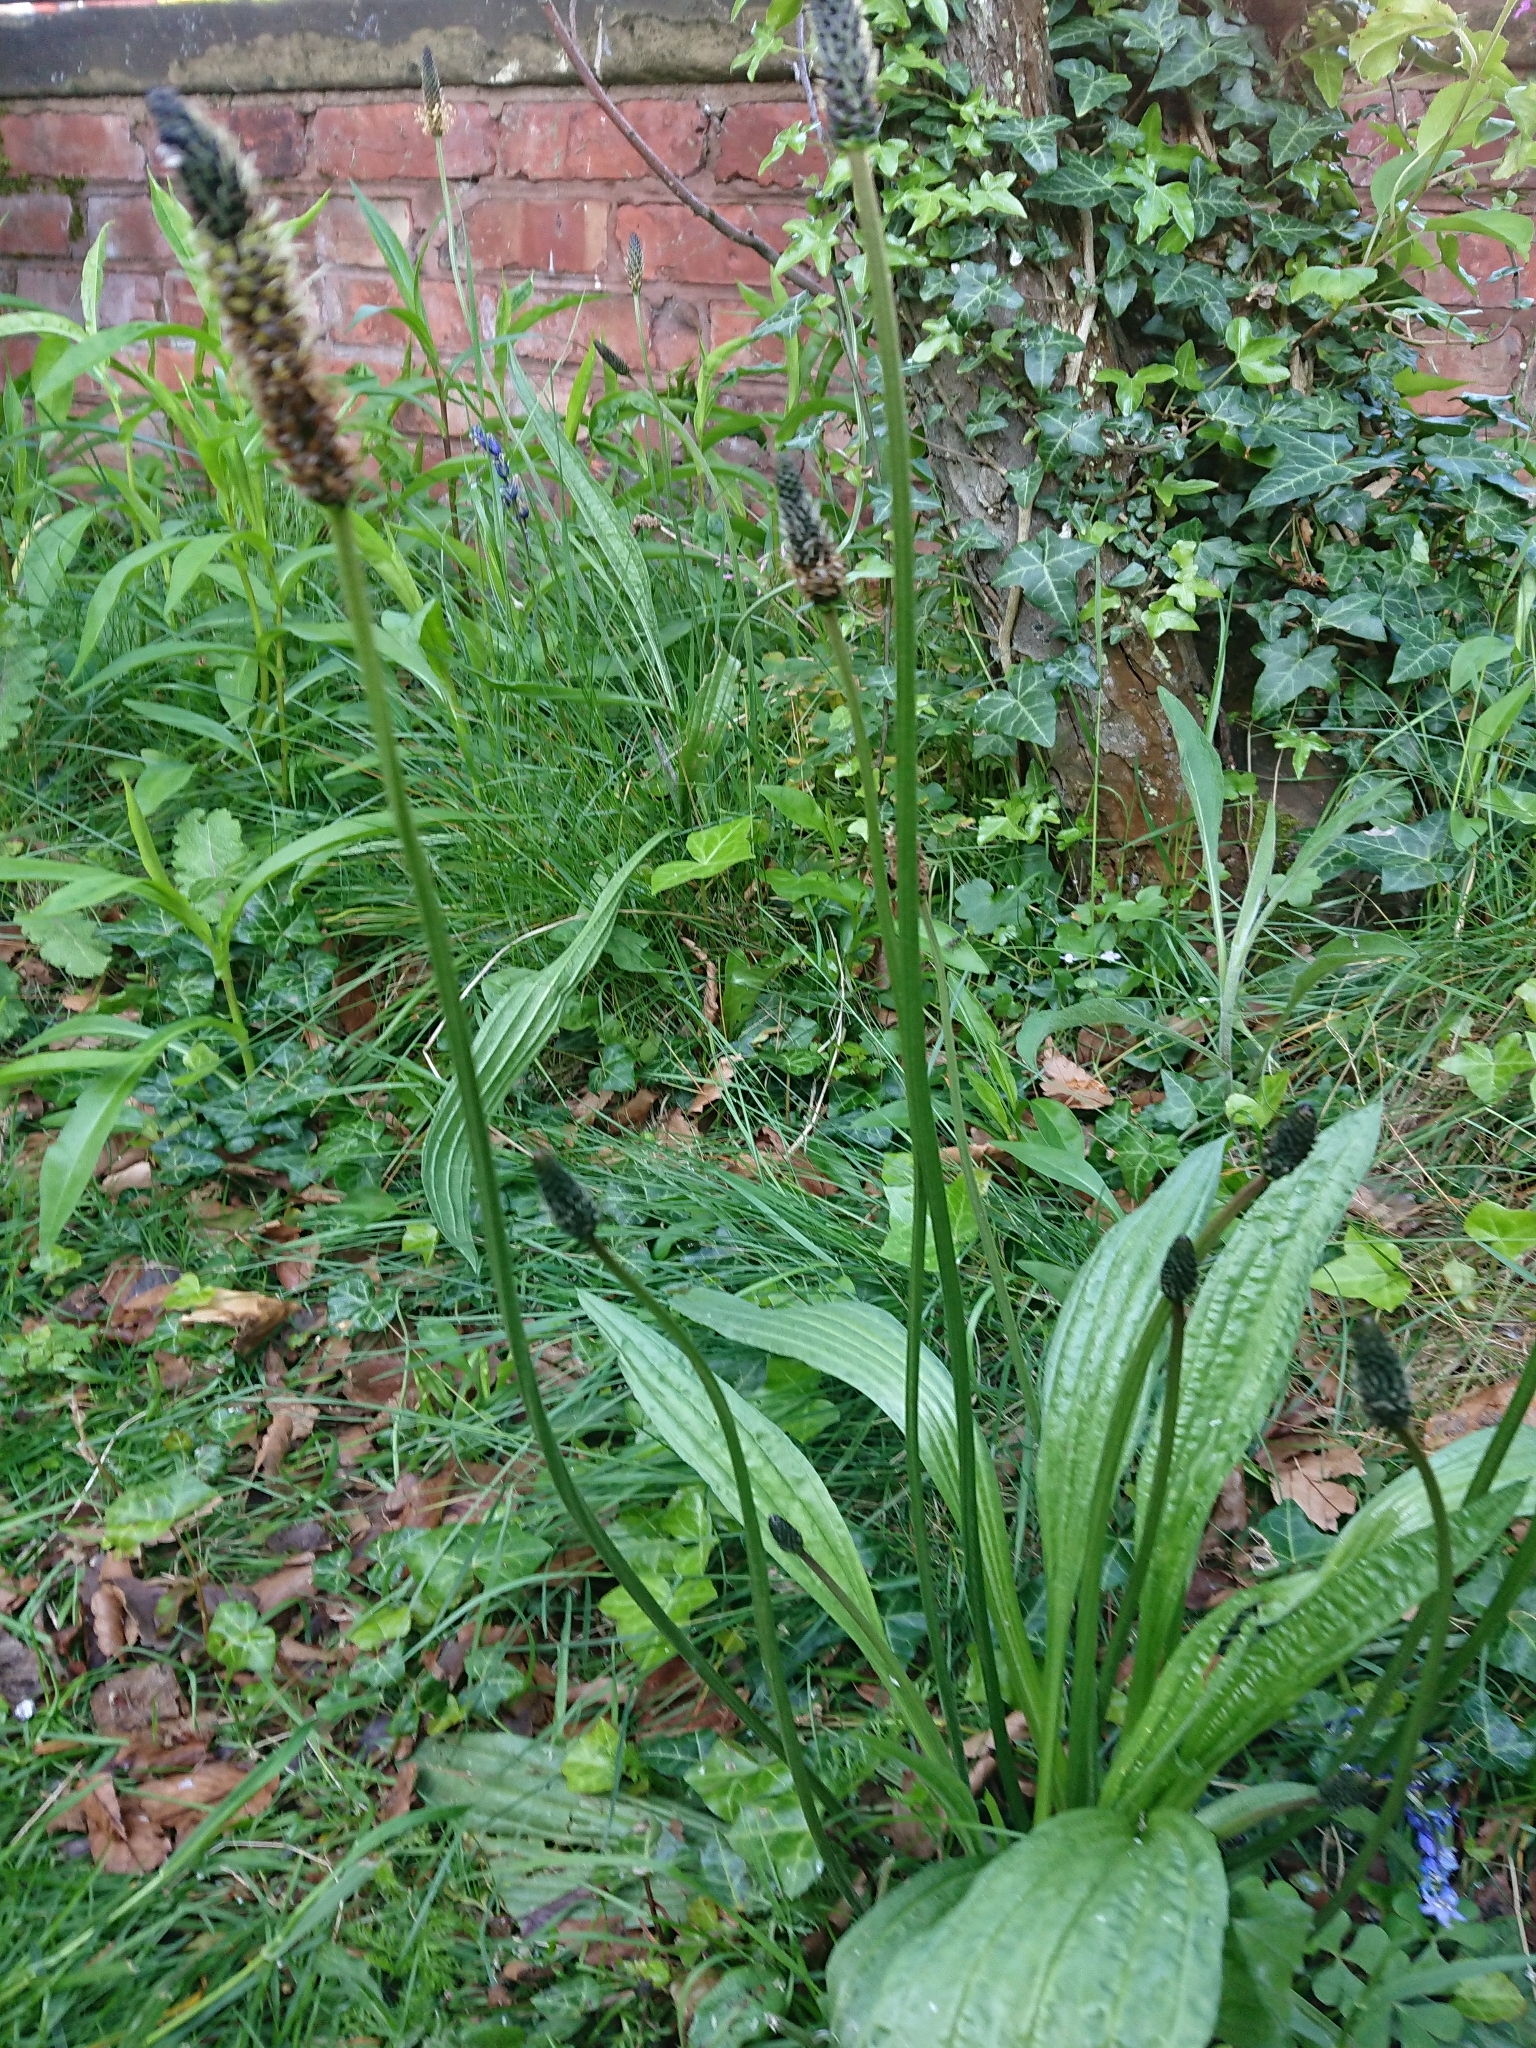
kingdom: Plantae
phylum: Tracheophyta
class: Magnoliopsida
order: Lamiales
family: Plantaginaceae
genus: Plantago
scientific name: Plantago lanceolata
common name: Ribwort plantain
